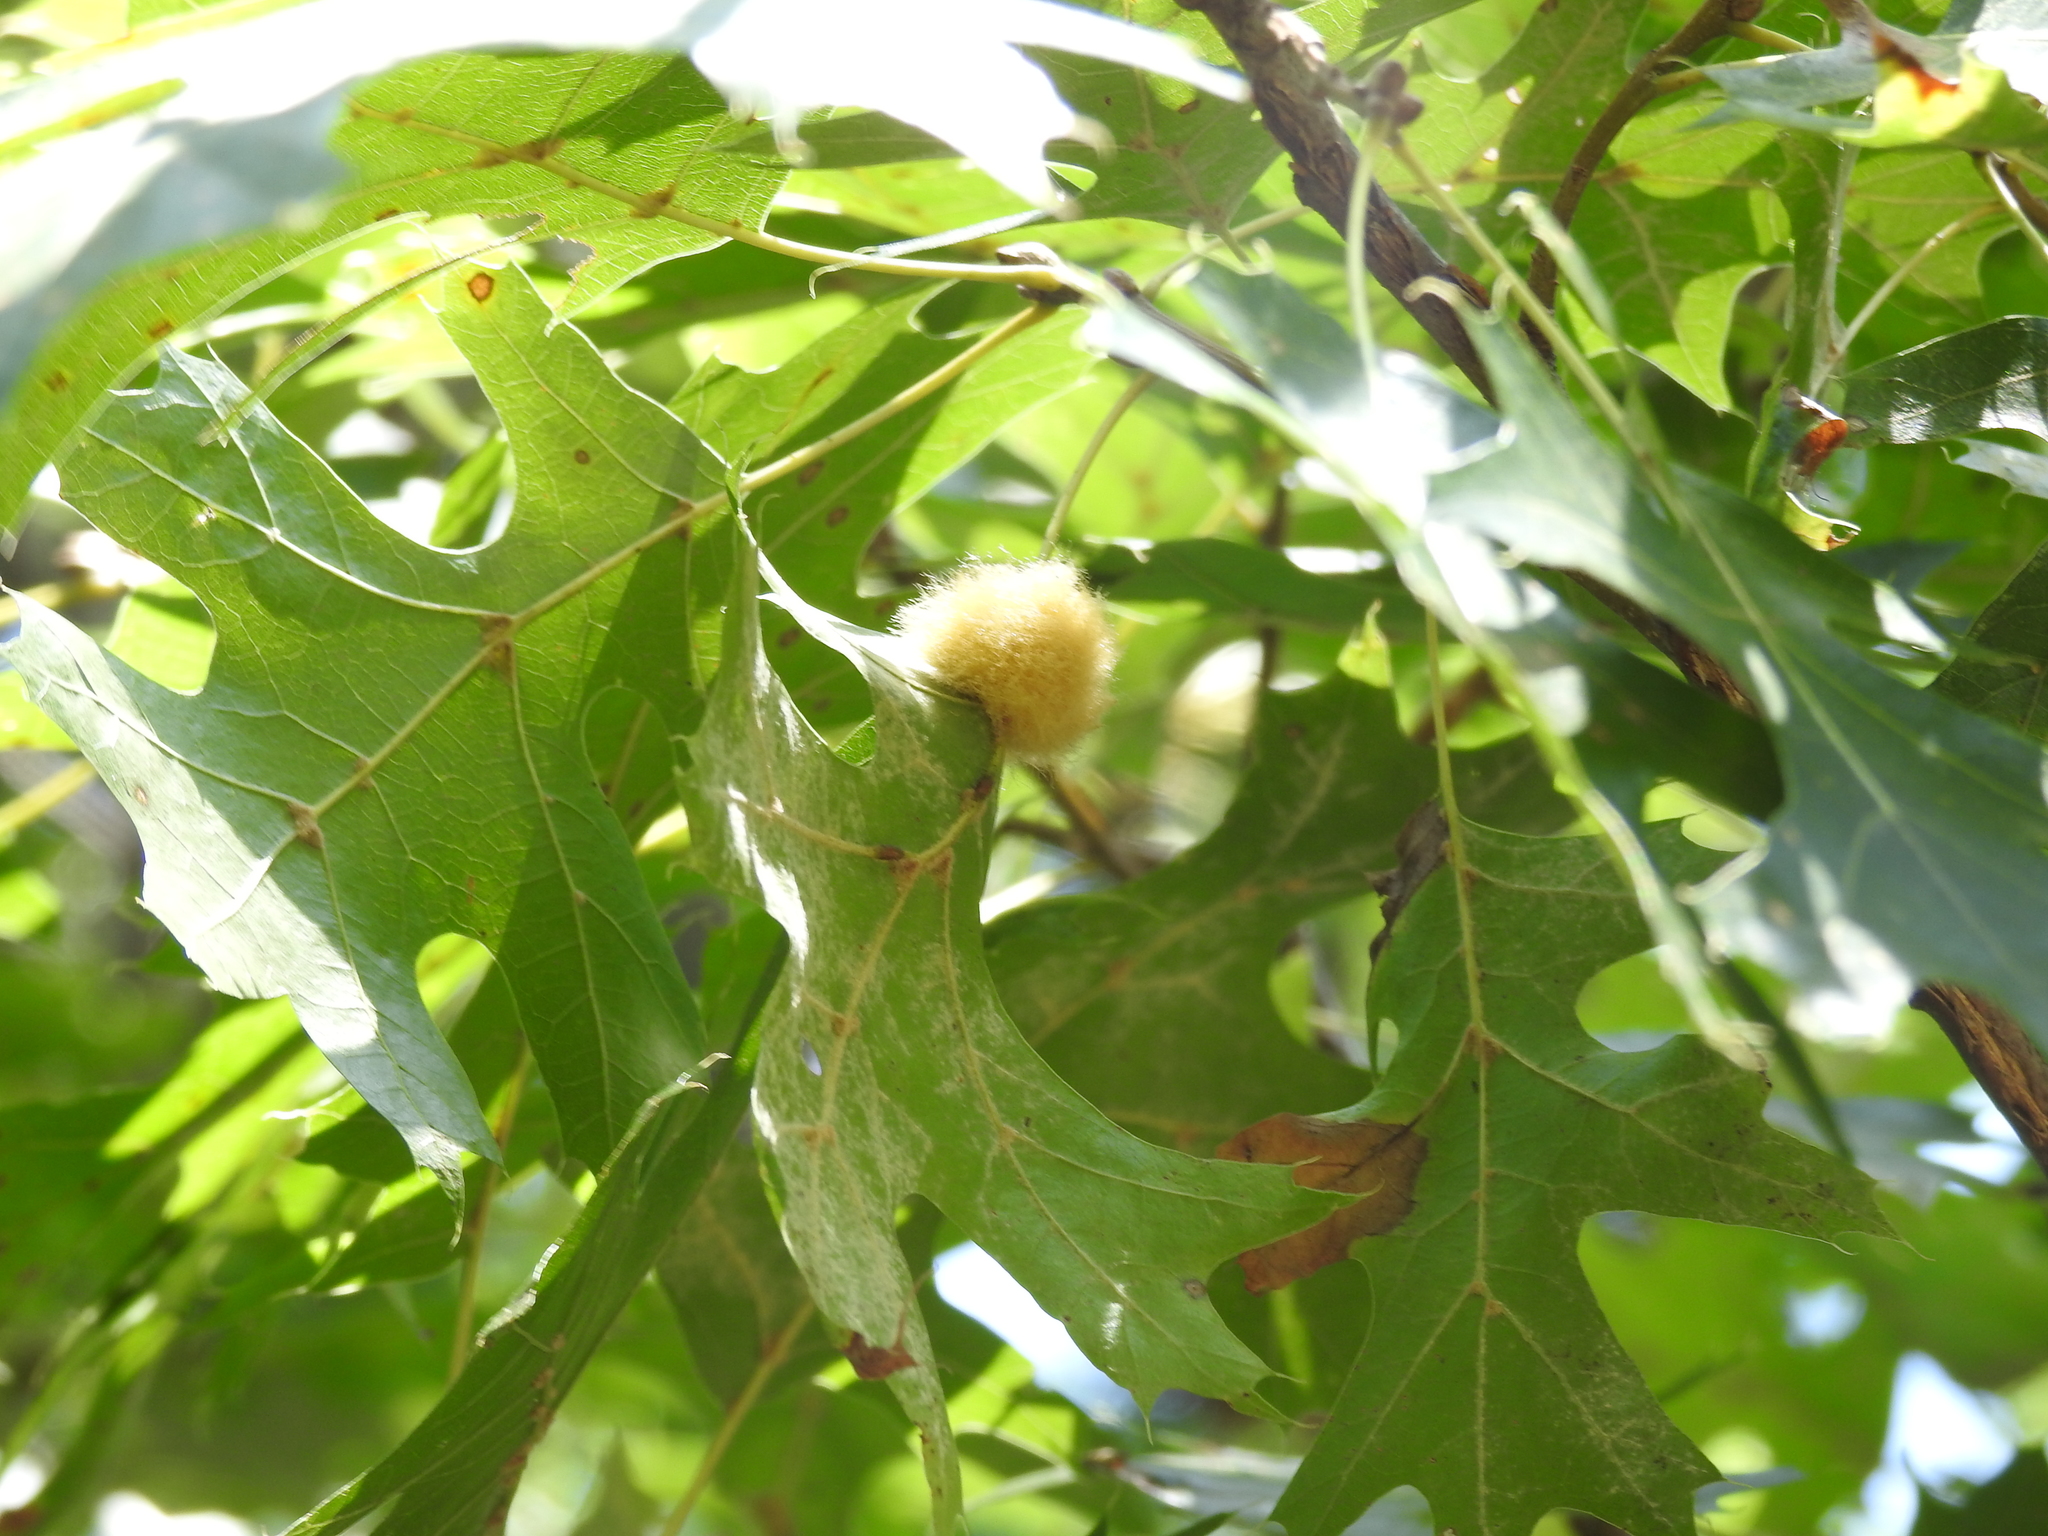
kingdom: Animalia
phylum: Arthropoda
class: Insecta
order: Hymenoptera
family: Cynipidae
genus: Callirhytis
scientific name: Callirhytis
